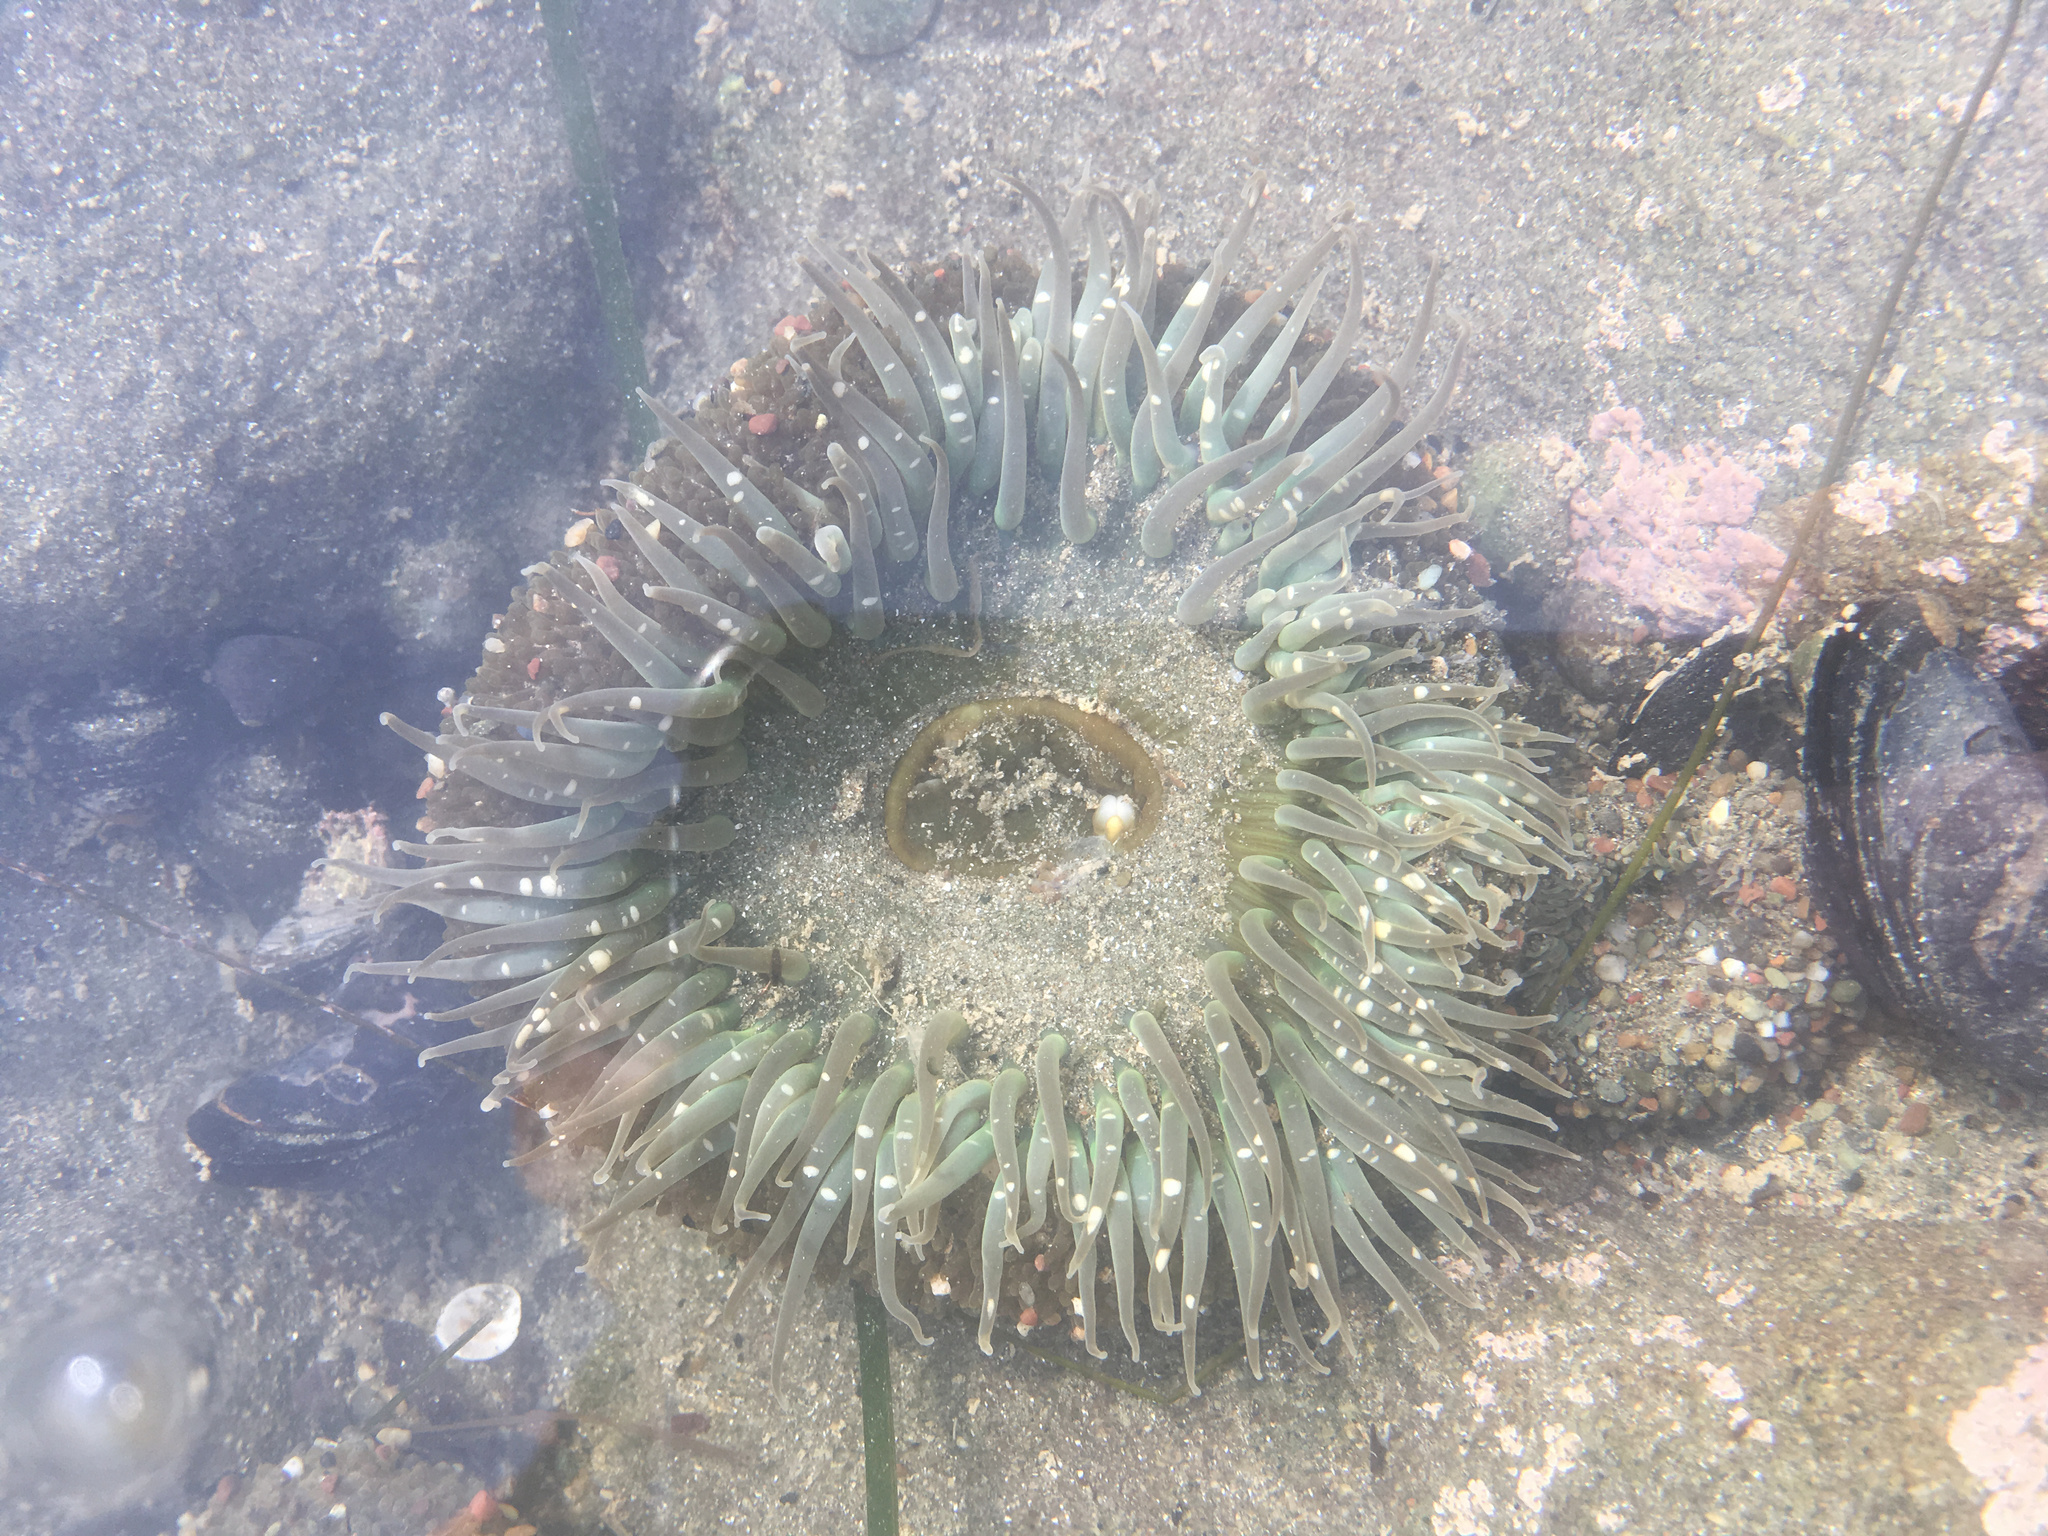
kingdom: Animalia
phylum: Cnidaria
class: Anthozoa
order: Actiniaria
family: Actiniidae
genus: Anthopleura
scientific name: Anthopleura sola
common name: Sun anemone
